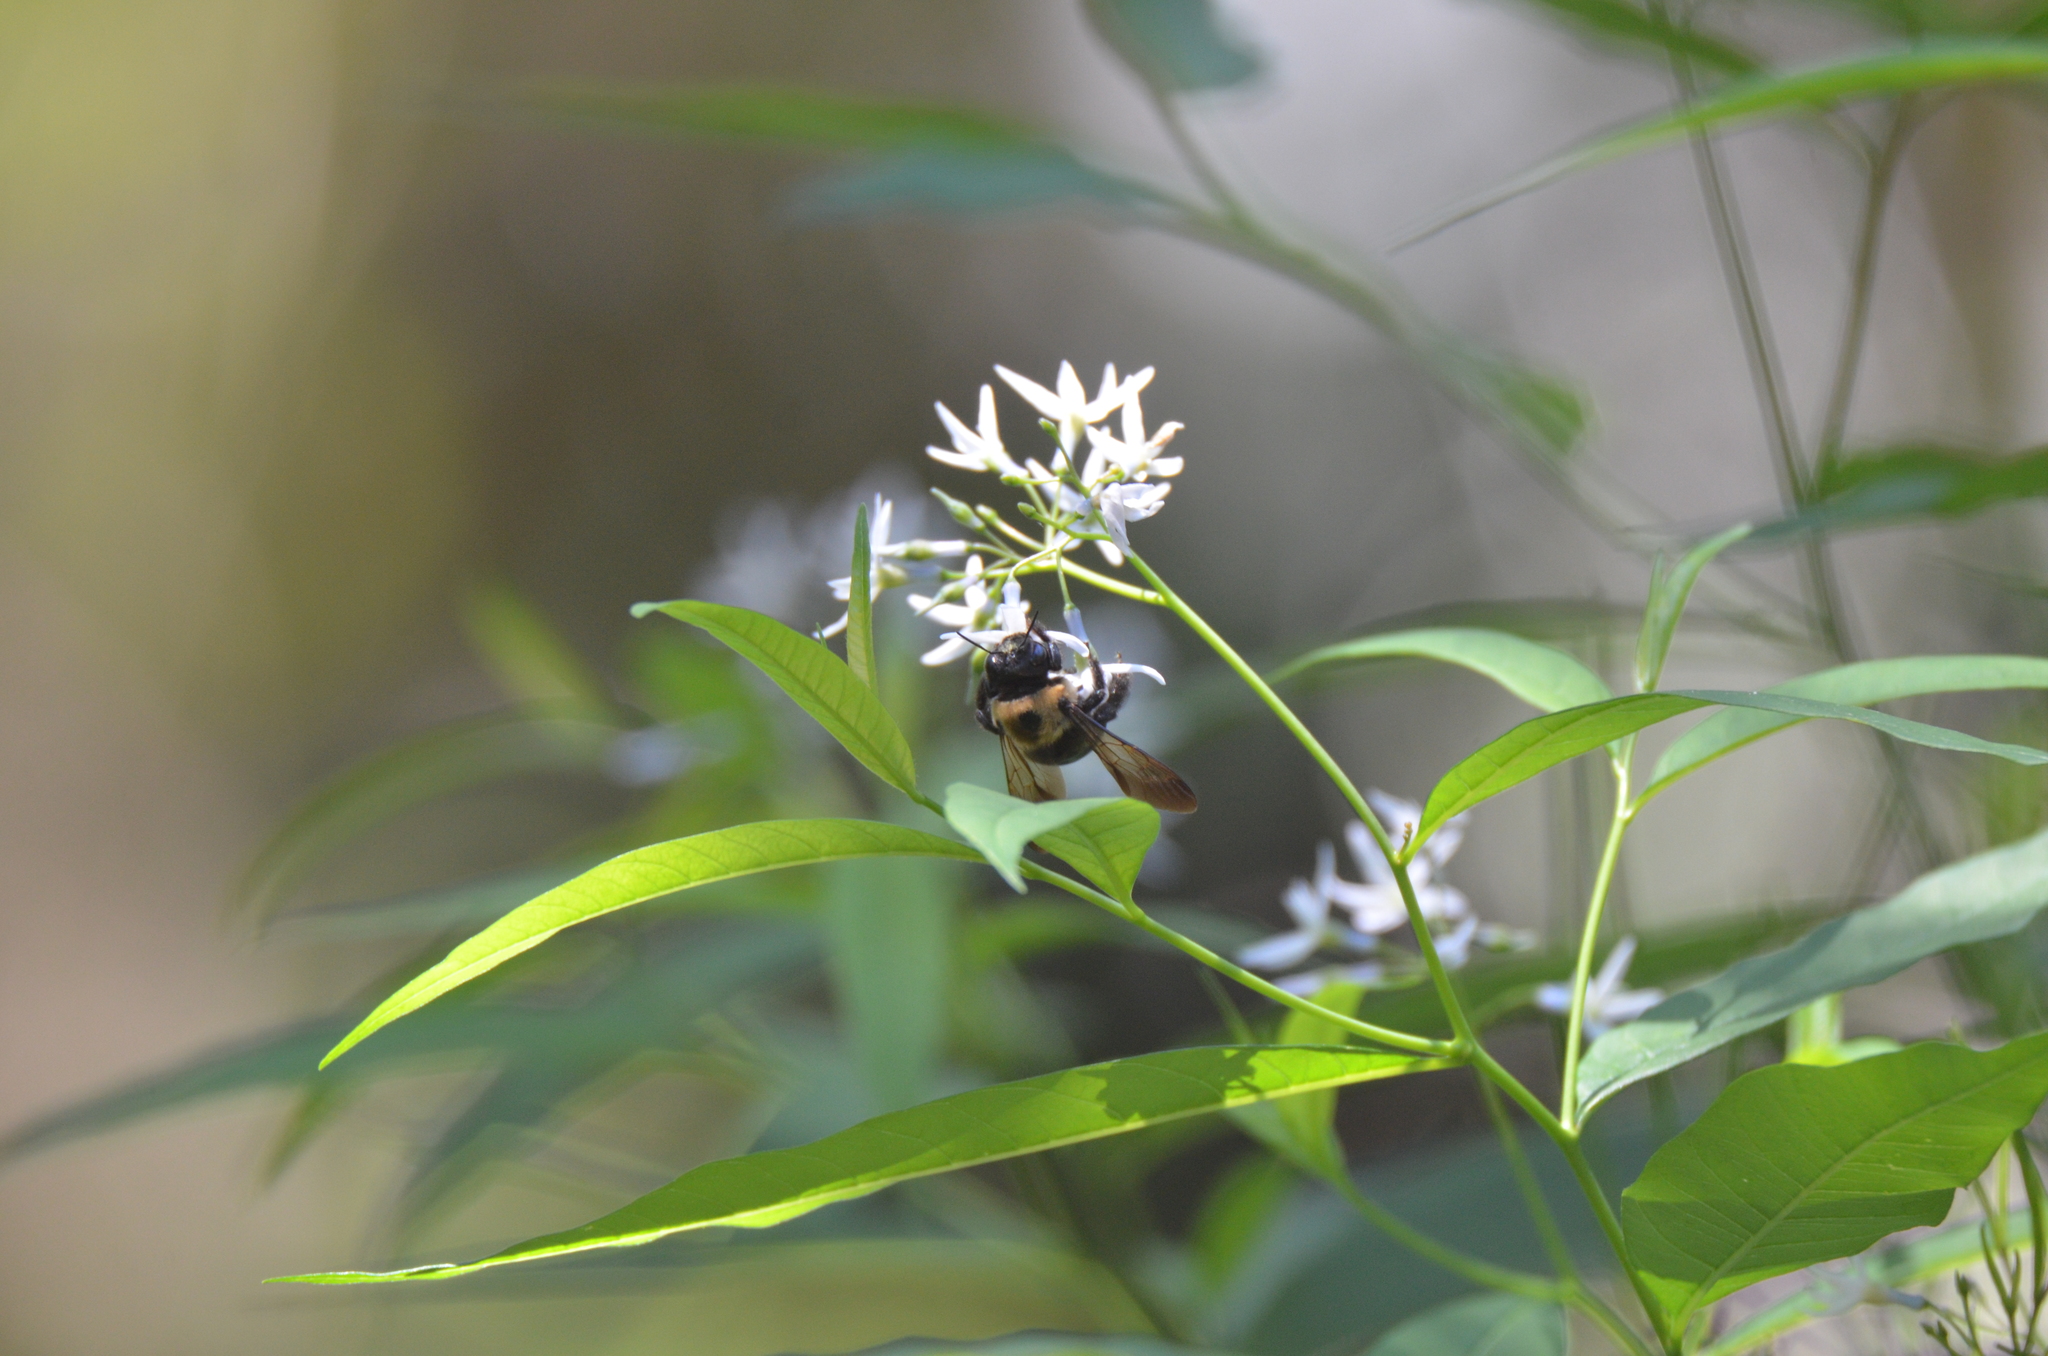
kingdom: Animalia
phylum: Arthropoda
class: Insecta
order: Hymenoptera
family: Apidae
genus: Xylocopa
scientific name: Xylocopa virginica
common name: Carpenter bee
